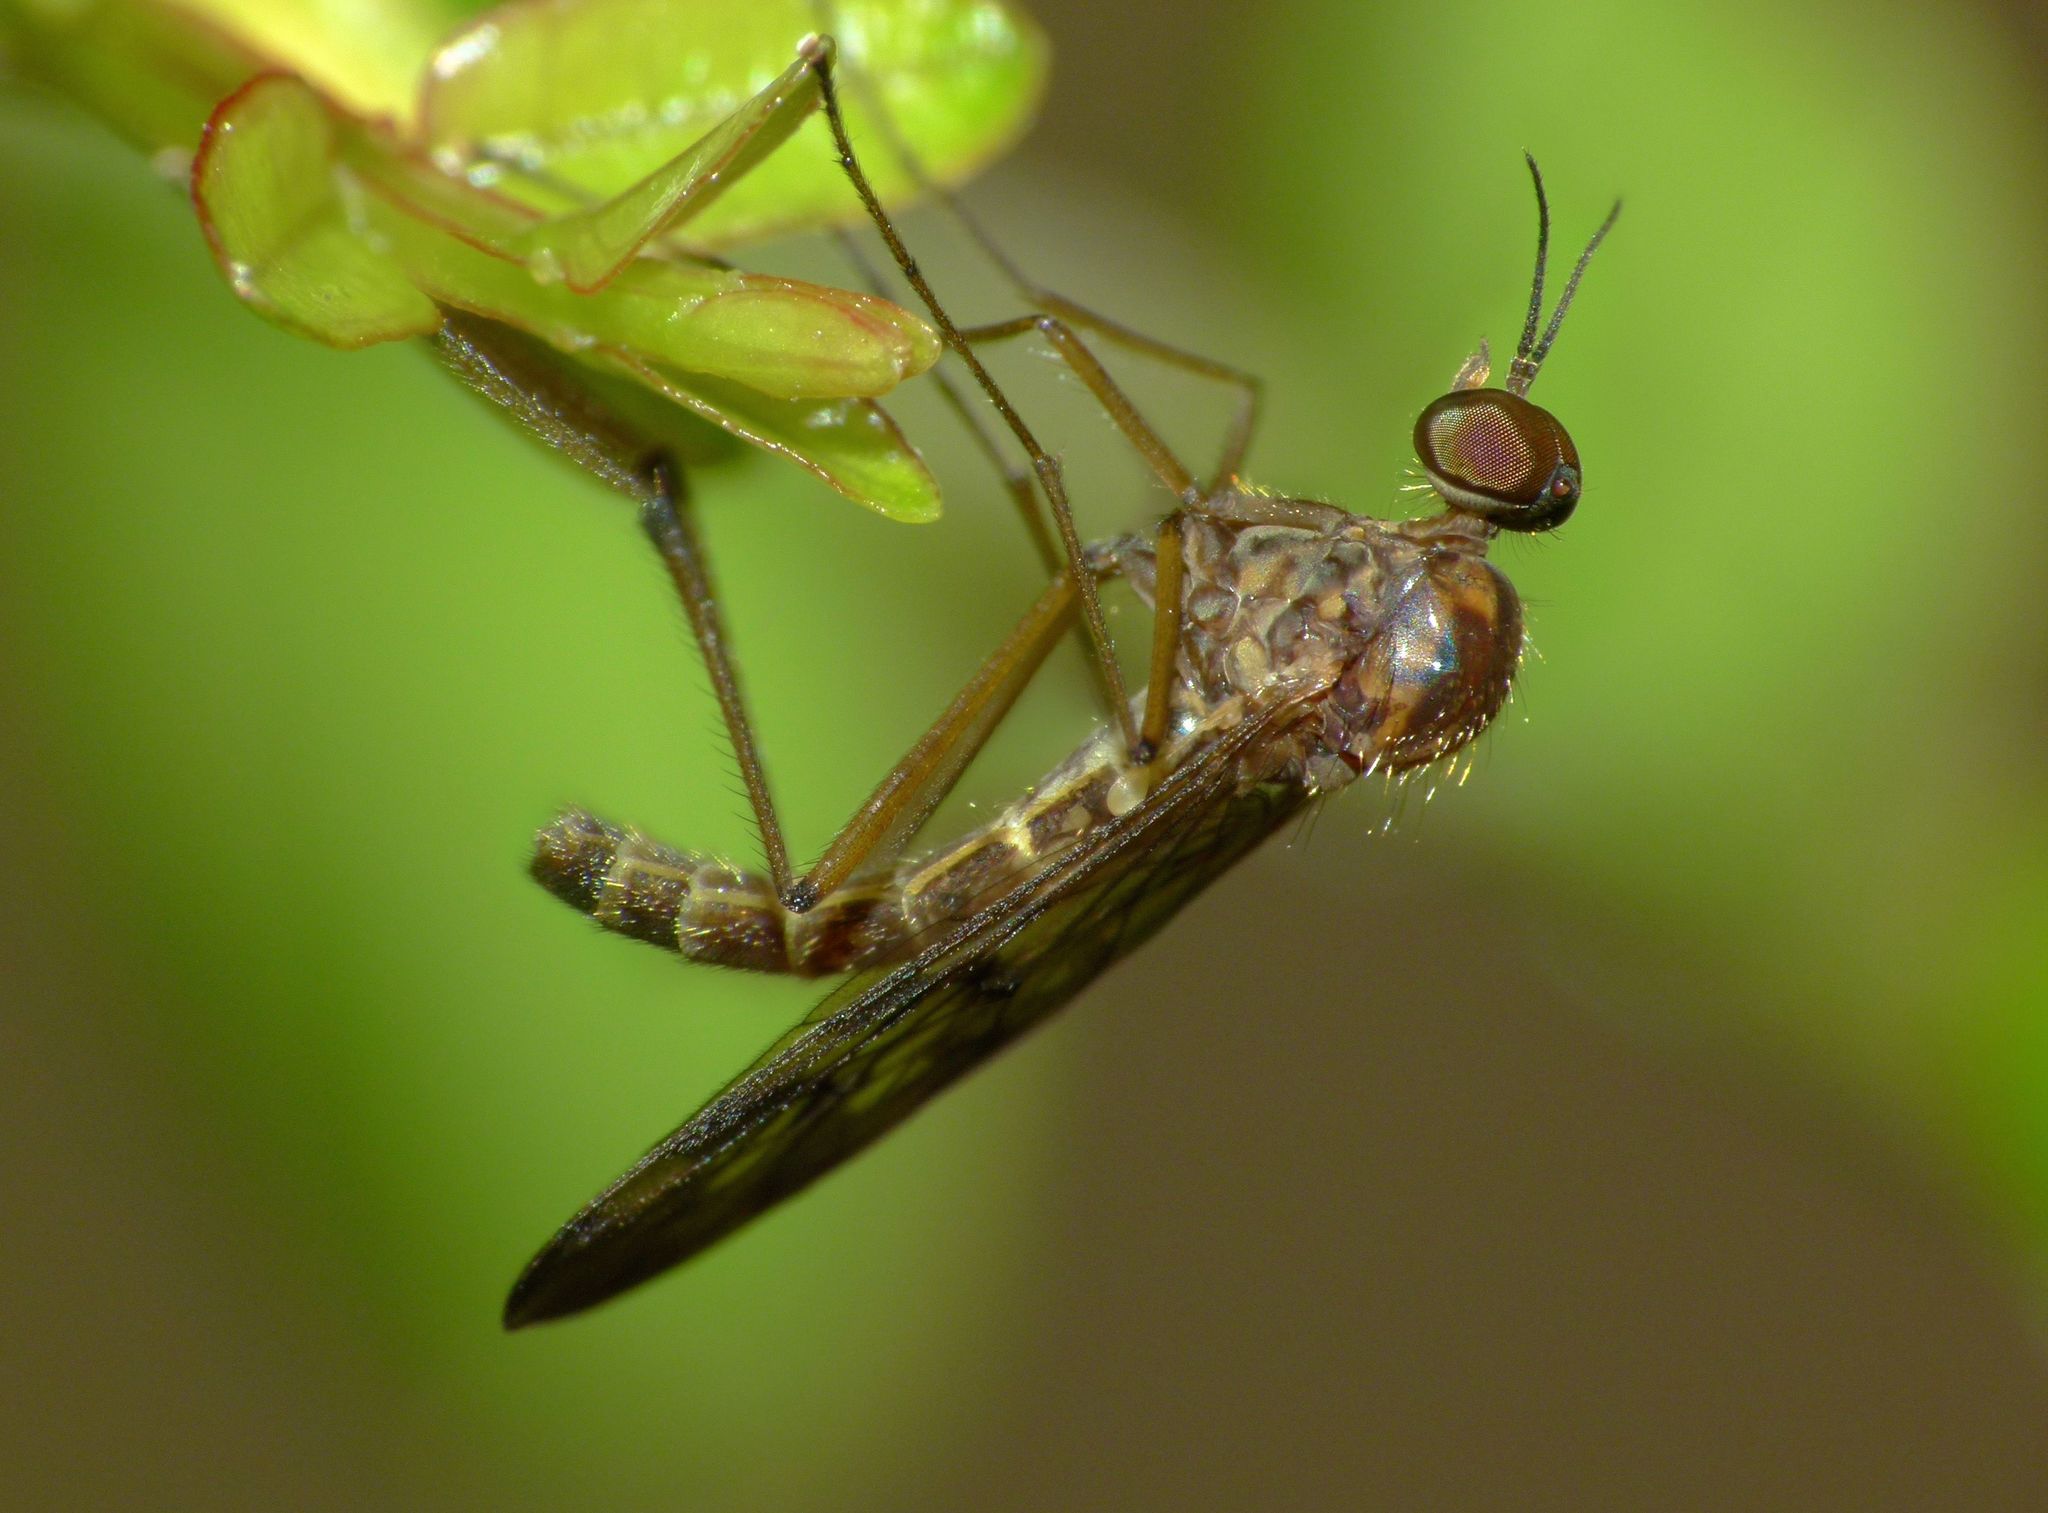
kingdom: Animalia
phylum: Arthropoda
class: Insecta
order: Diptera
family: Anisopodidae
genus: Sylvicola
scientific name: Sylvicola undulatus
